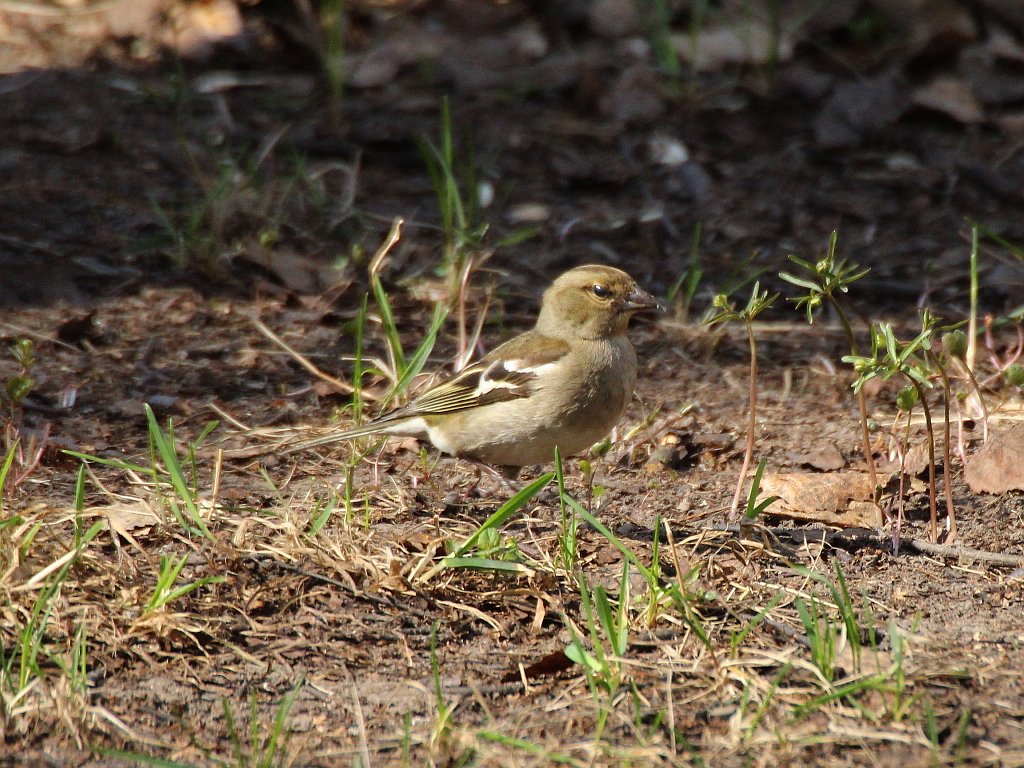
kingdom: Animalia
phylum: Chordata
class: Aves
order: Passeriformes
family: Fringillidae
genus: Fringilla
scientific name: Fringilla coelebs
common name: Common chaffinch
